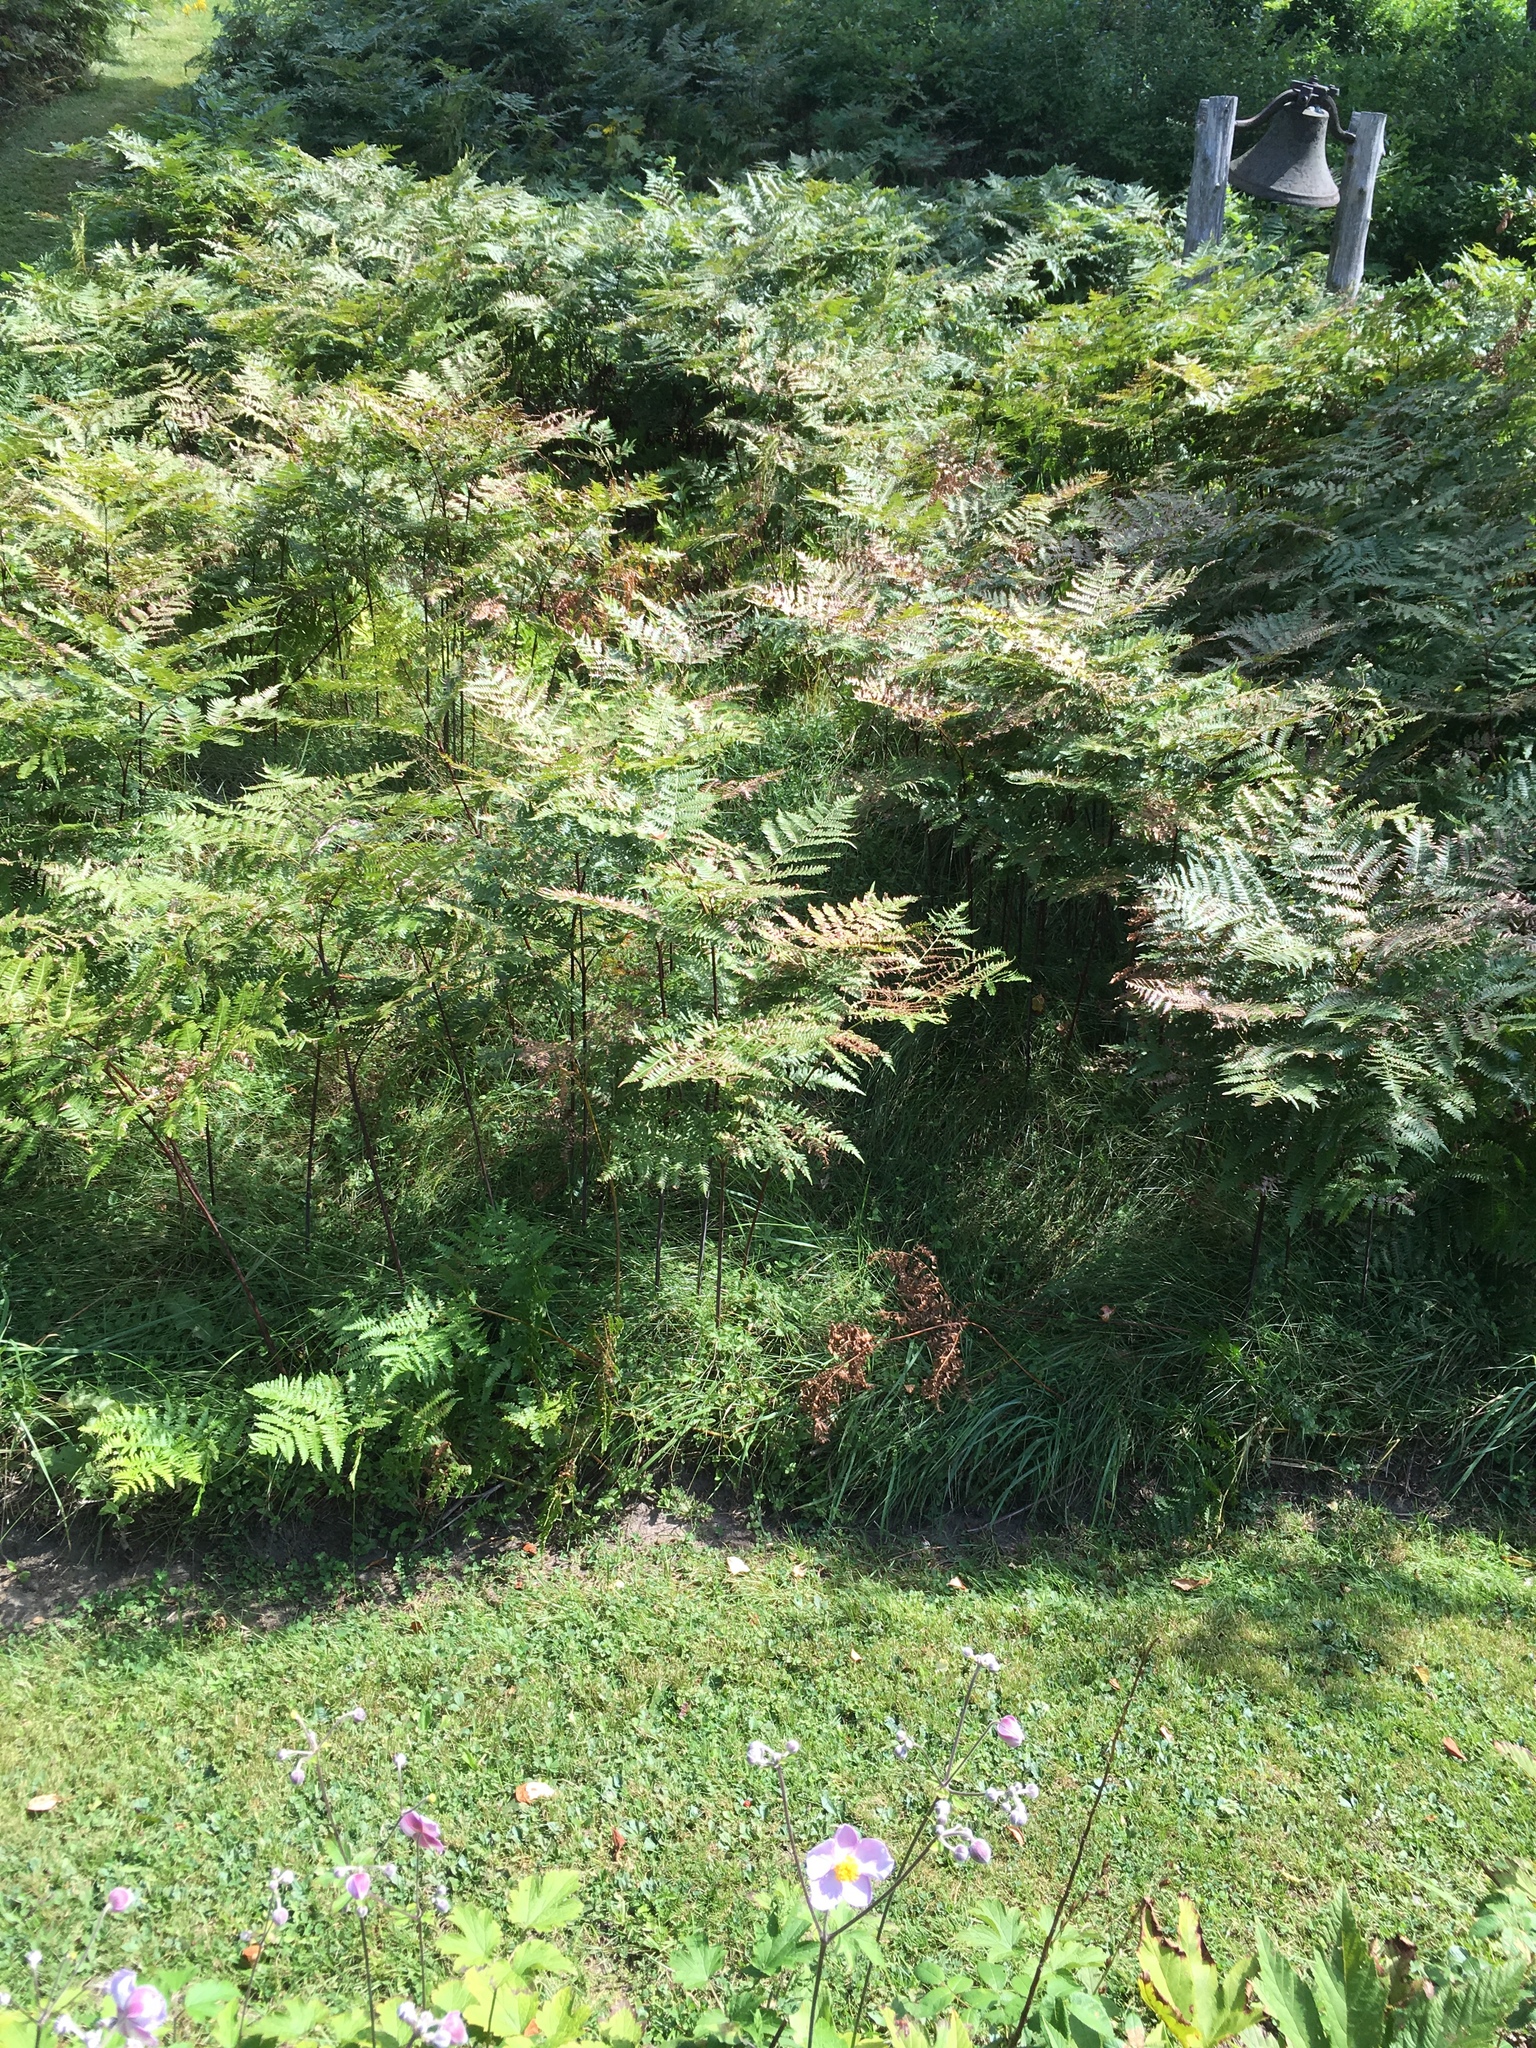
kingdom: Plantae
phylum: Tracheophyta
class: Polypodiopsida
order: Polypodiales
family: Dennstaedtiaceae
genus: Pteridium
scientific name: Pteridium aquilinum
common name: Bracken
